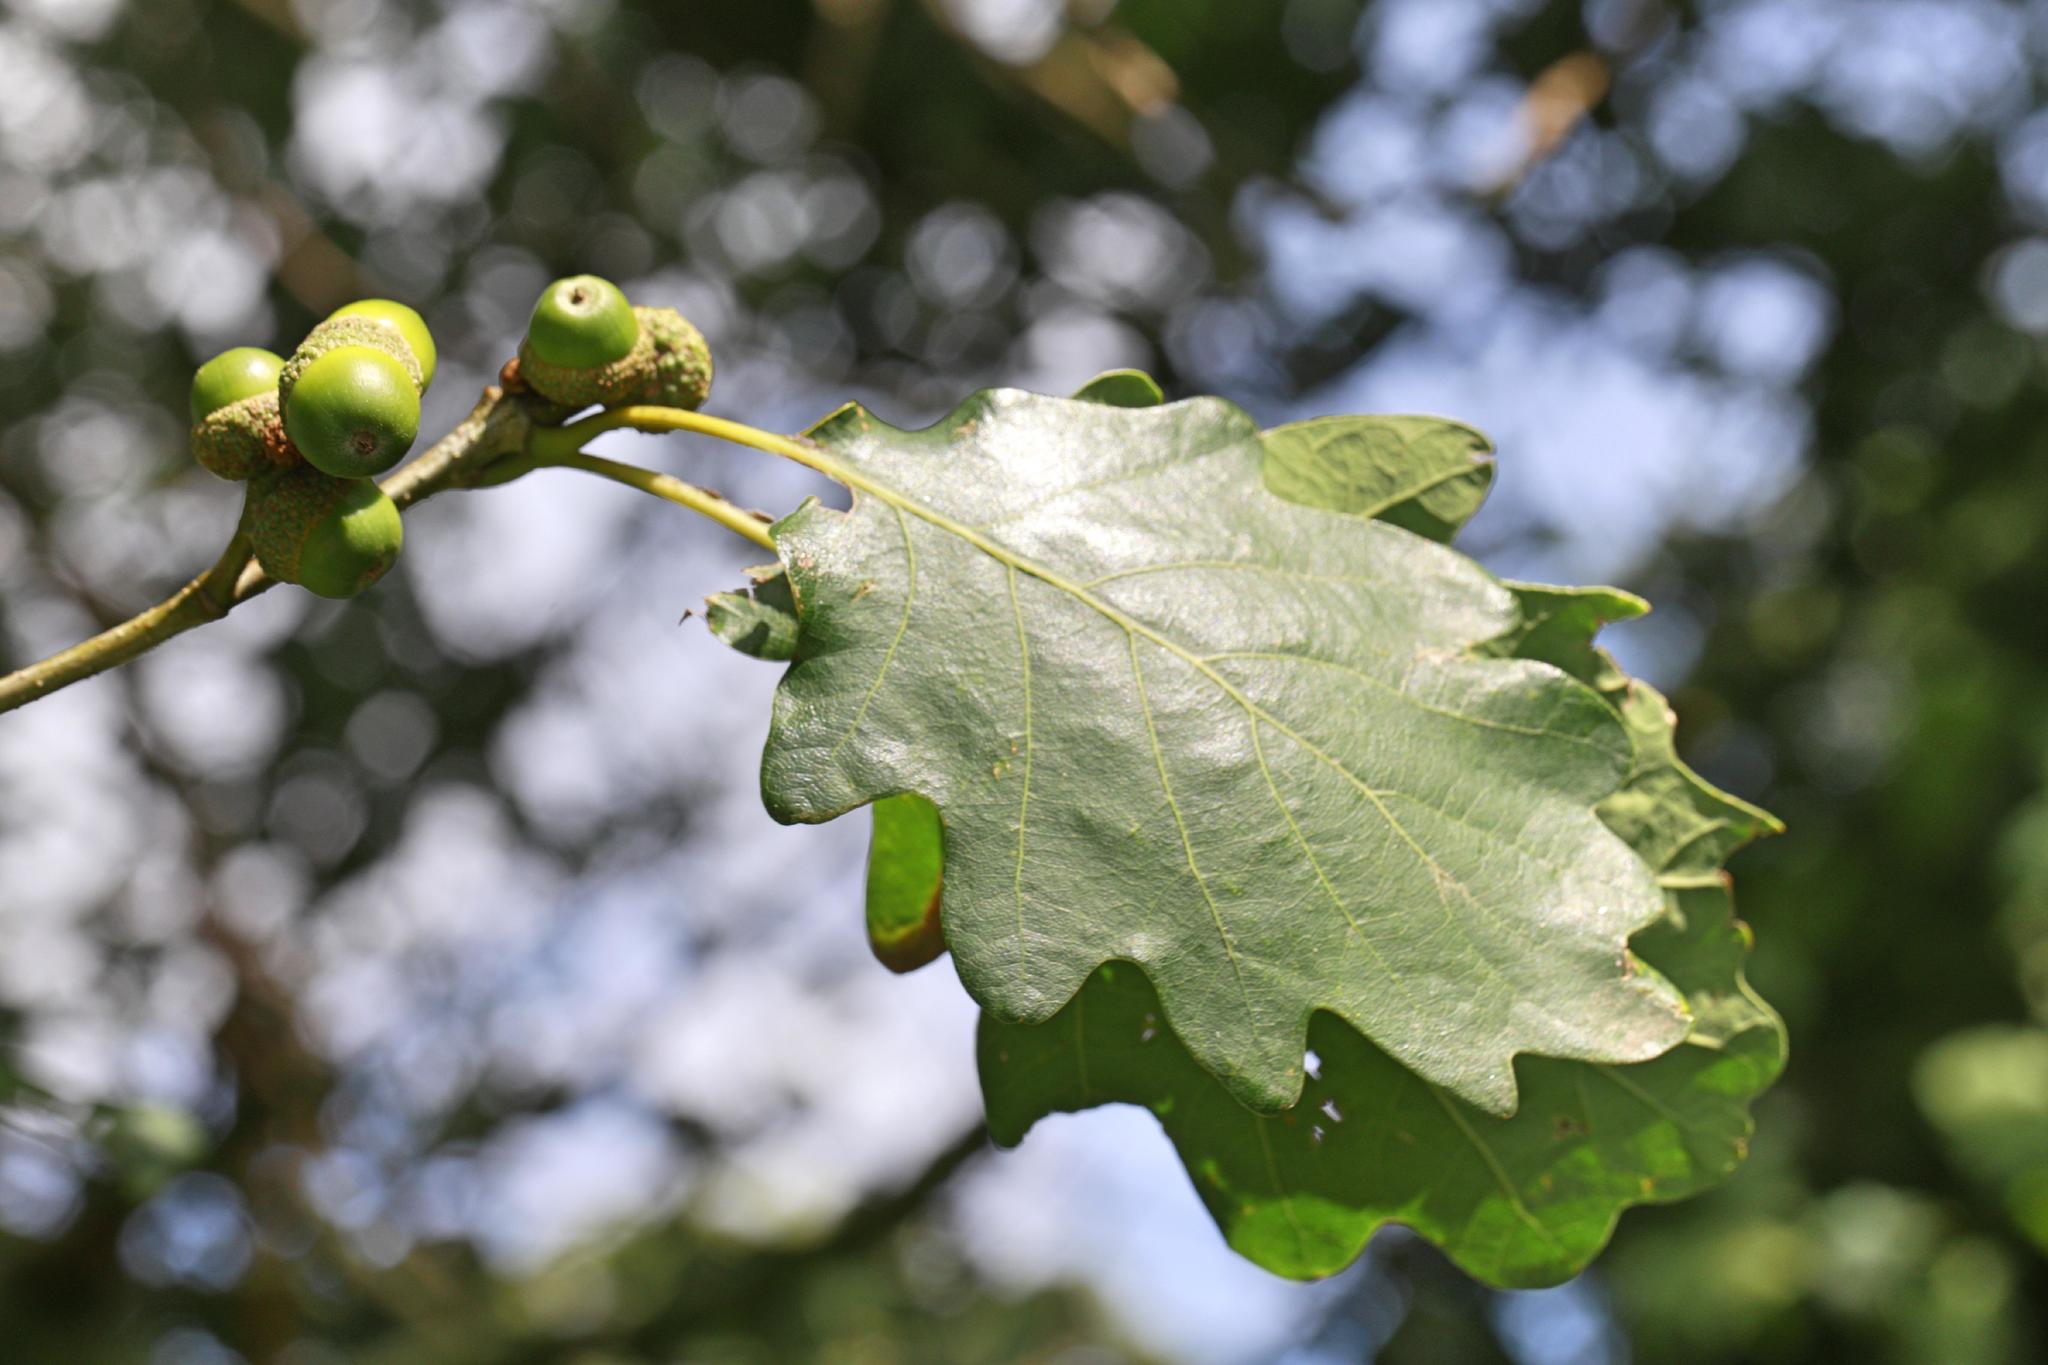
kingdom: Plantae
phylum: Tracheophyta
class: Magnoliopsida
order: Fagales
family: Fagaceae
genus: Quercus
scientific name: Quercus petraea
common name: Sessile oak
